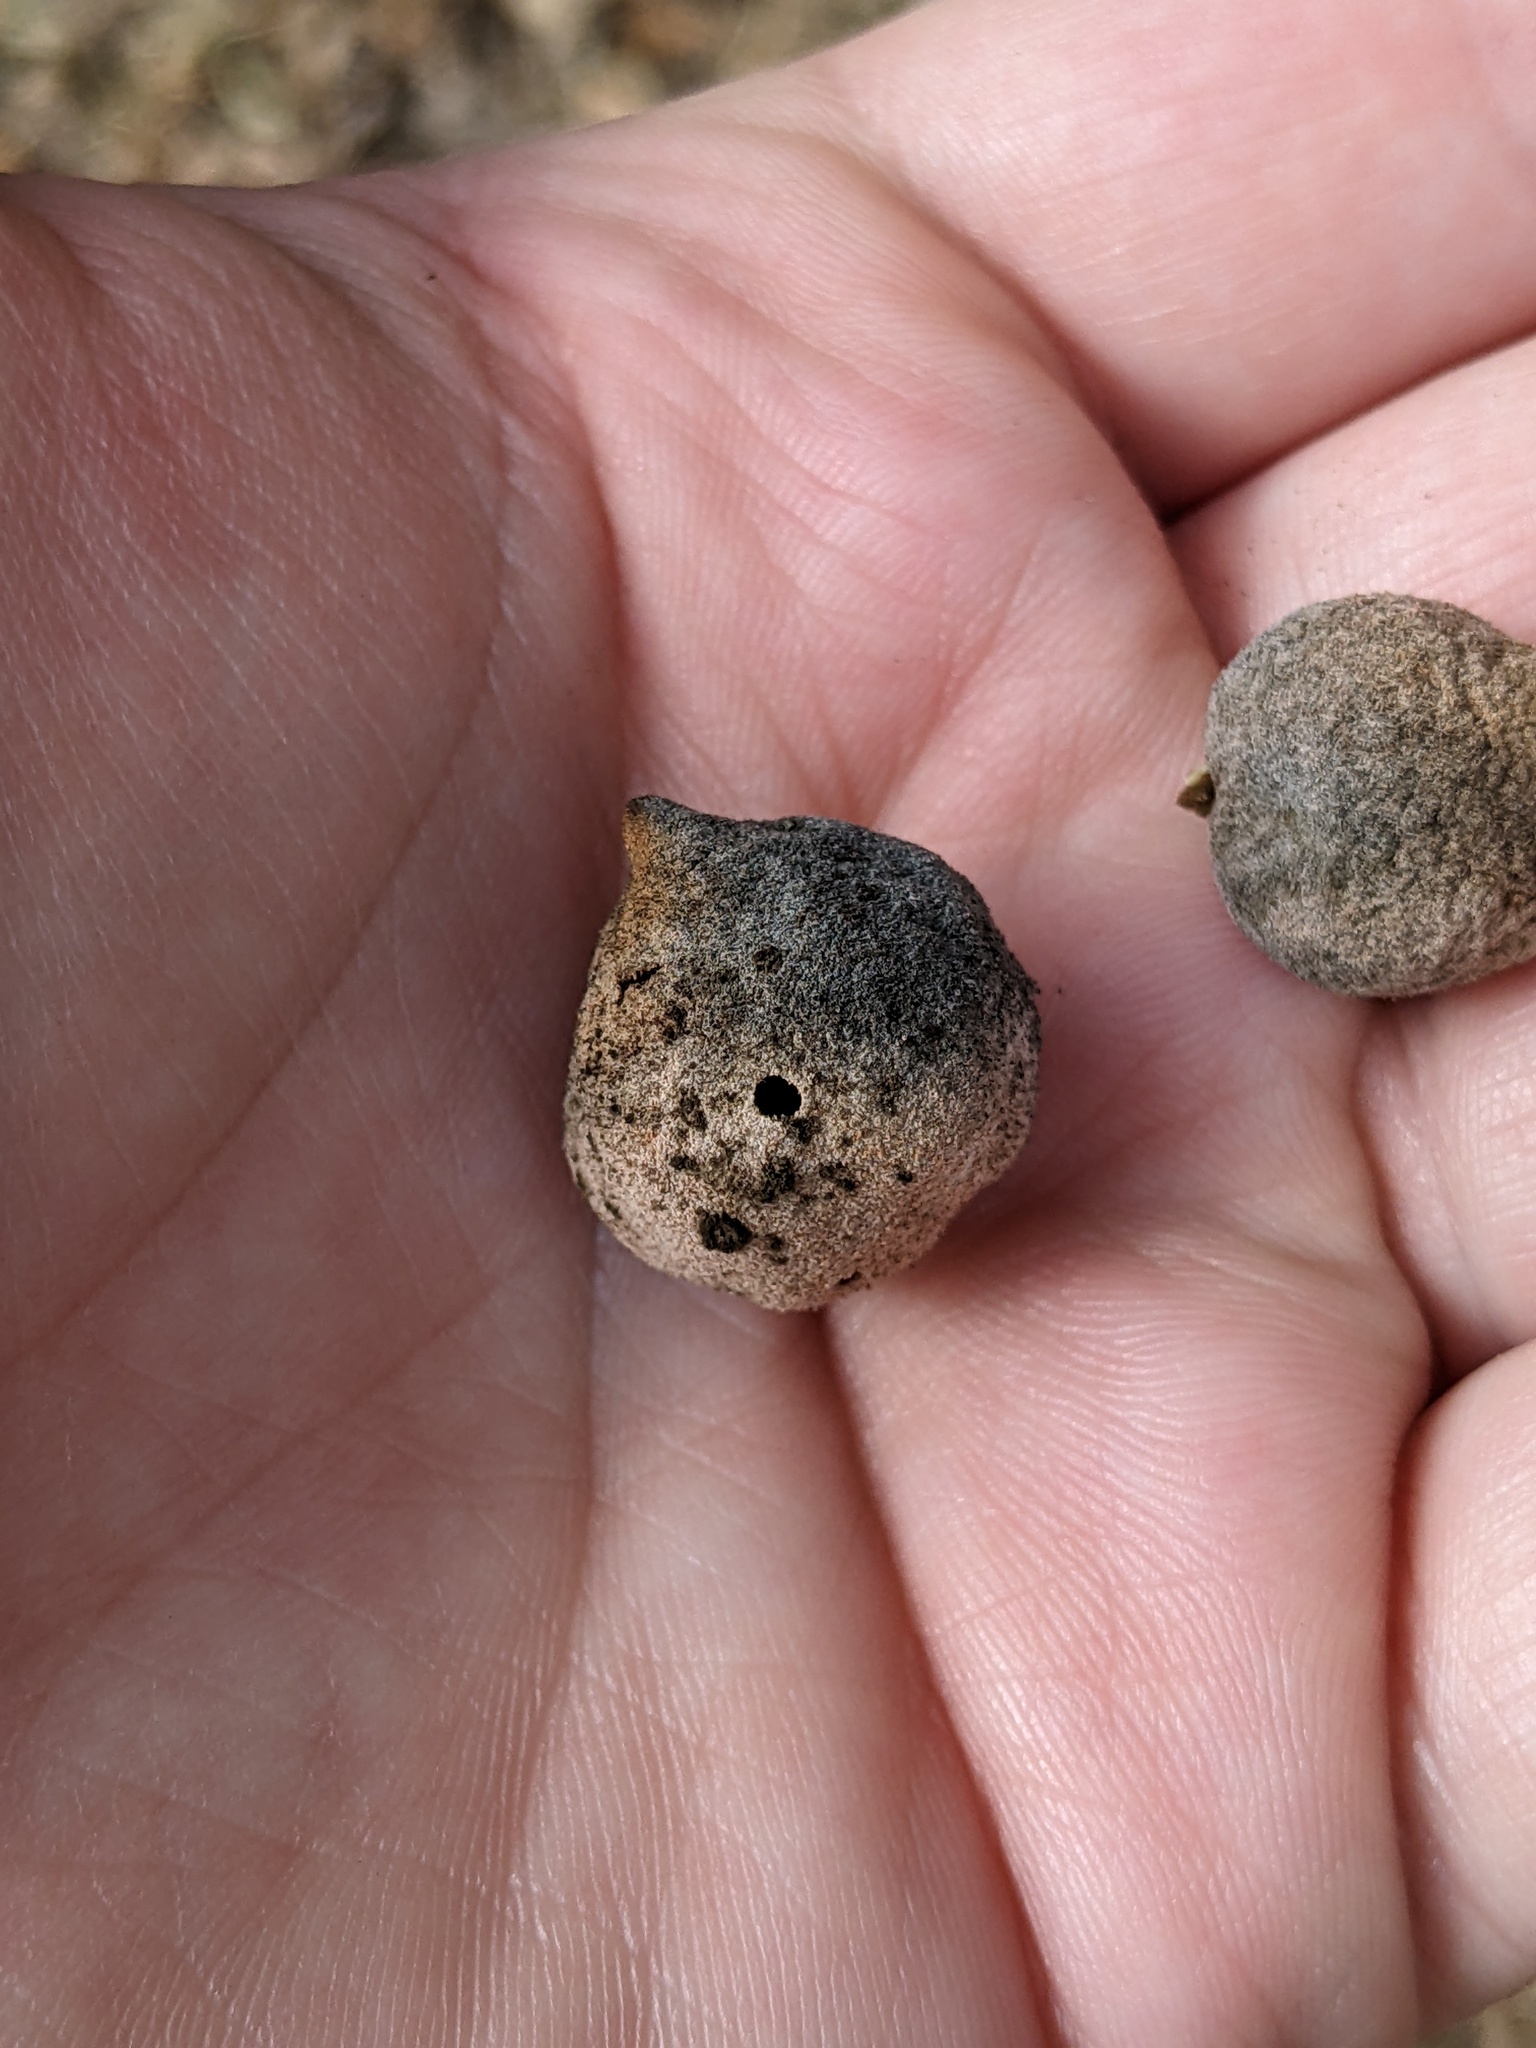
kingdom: Animalia
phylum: Arthropoda
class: Insecta
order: Hymenoptera
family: Cynipidae
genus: Disholcaspis
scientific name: Disholcaspis
